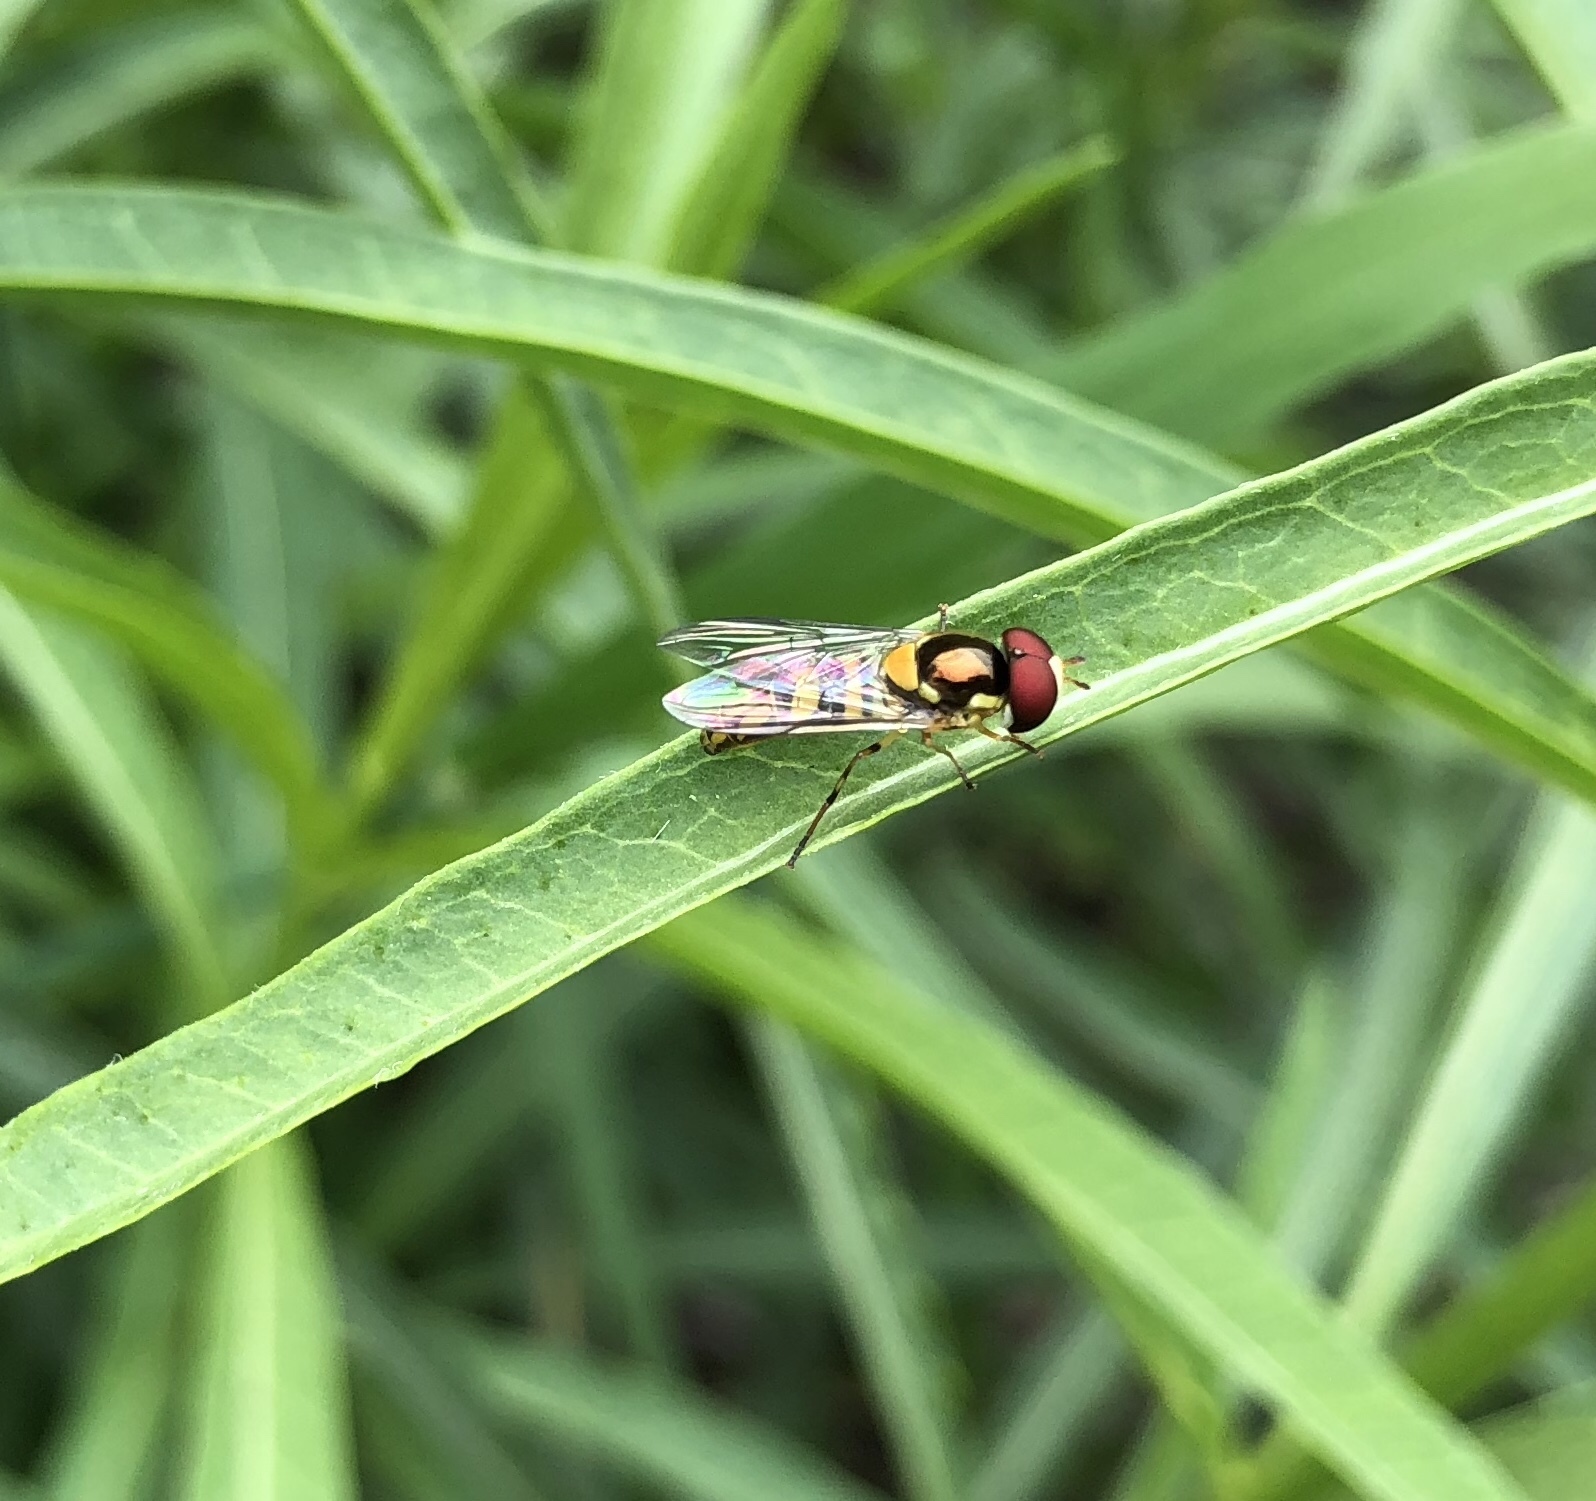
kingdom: Animalia
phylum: Arthropoda
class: Insecta
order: Diptera
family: Syrphidae
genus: Allograpta
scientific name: Allograpta obliqua
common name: Common oblique syrphid
